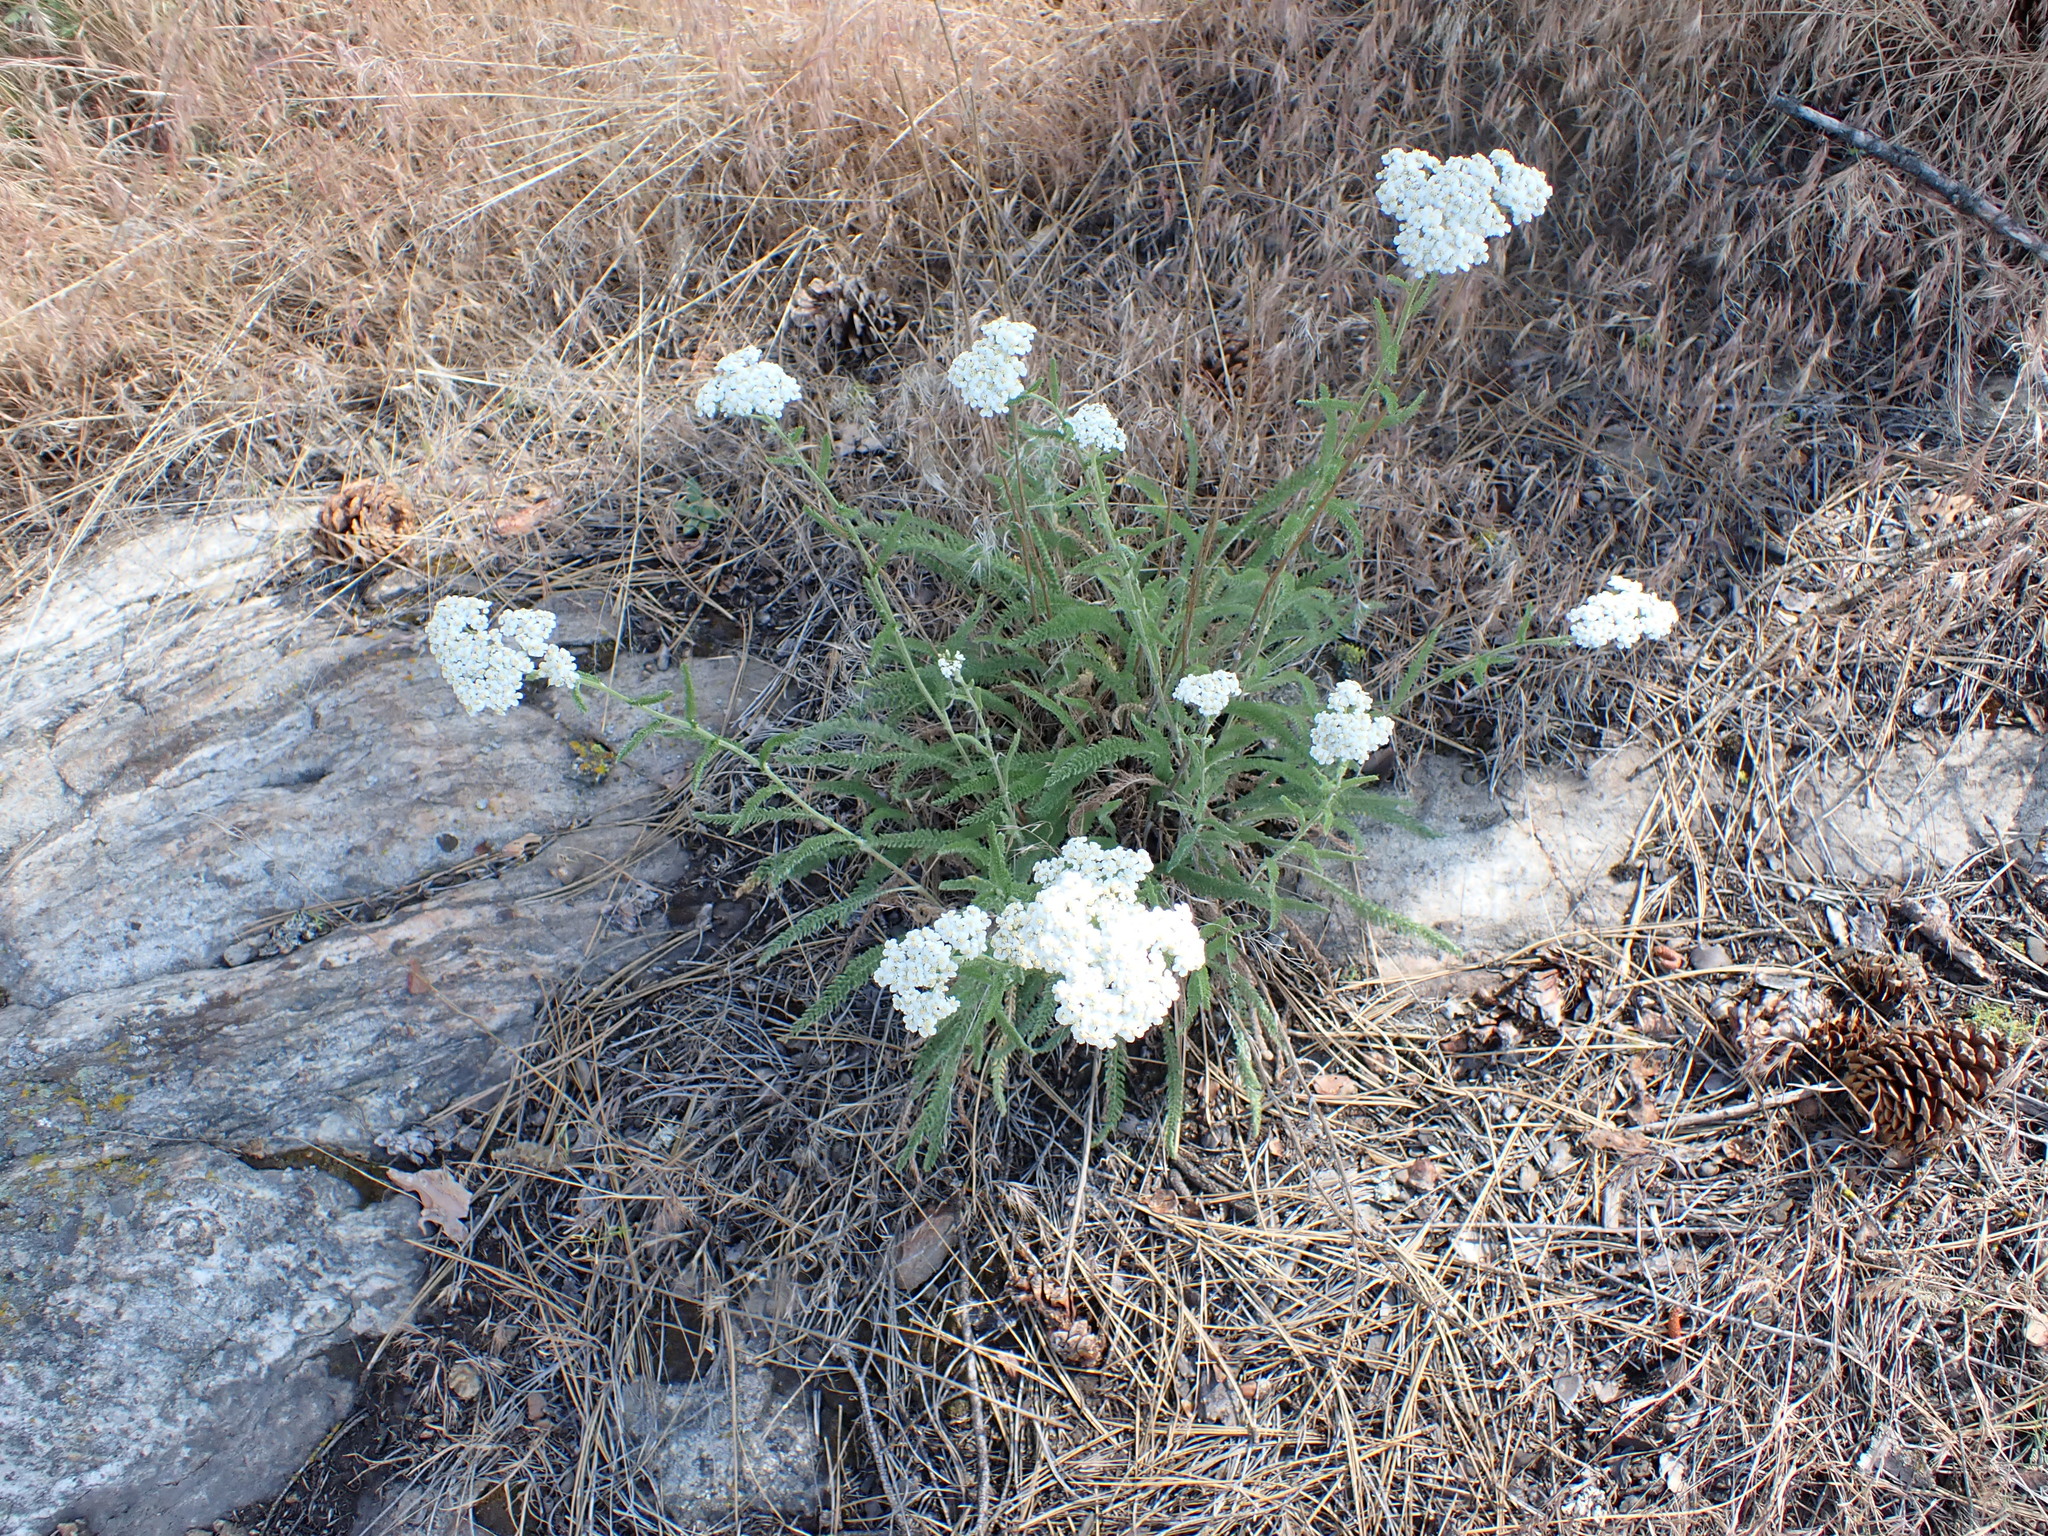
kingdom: Plantae
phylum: Tracheophyta
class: Magnoliopsida
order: Asterales
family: Asteraceae
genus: Achillea
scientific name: Achillea millefolium
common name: Yarrow
